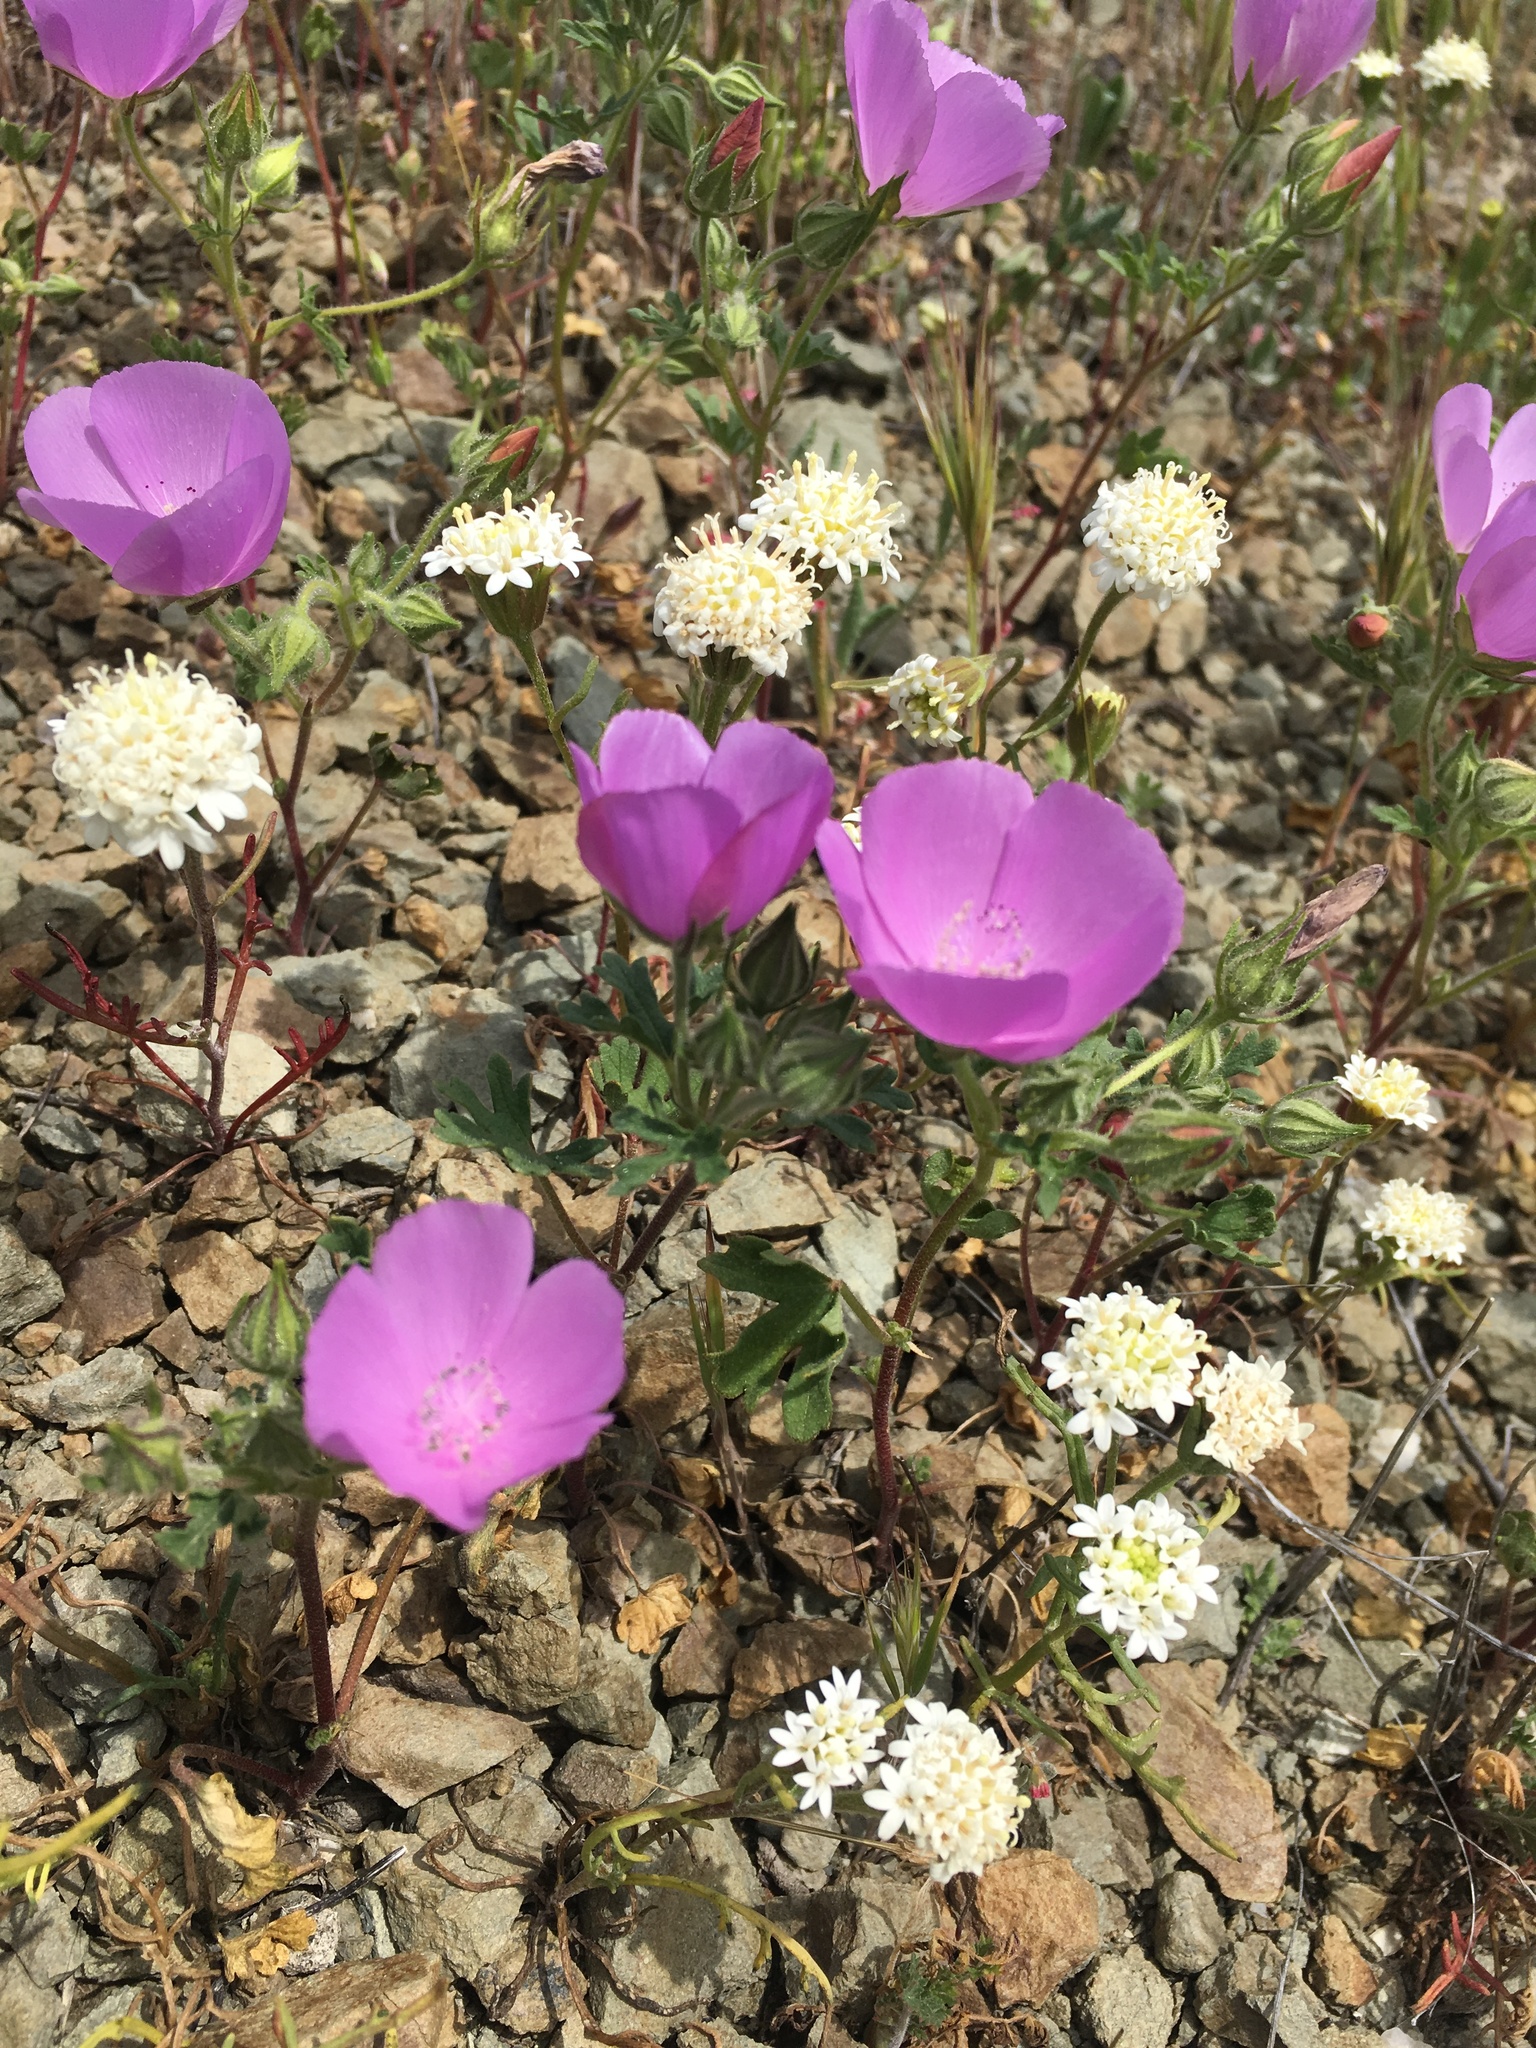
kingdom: Plantae
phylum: Tracheophyta
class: Magnoliopsida
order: Malvales
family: Malvaceae
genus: Eremalche
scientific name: Eremalche parryi
